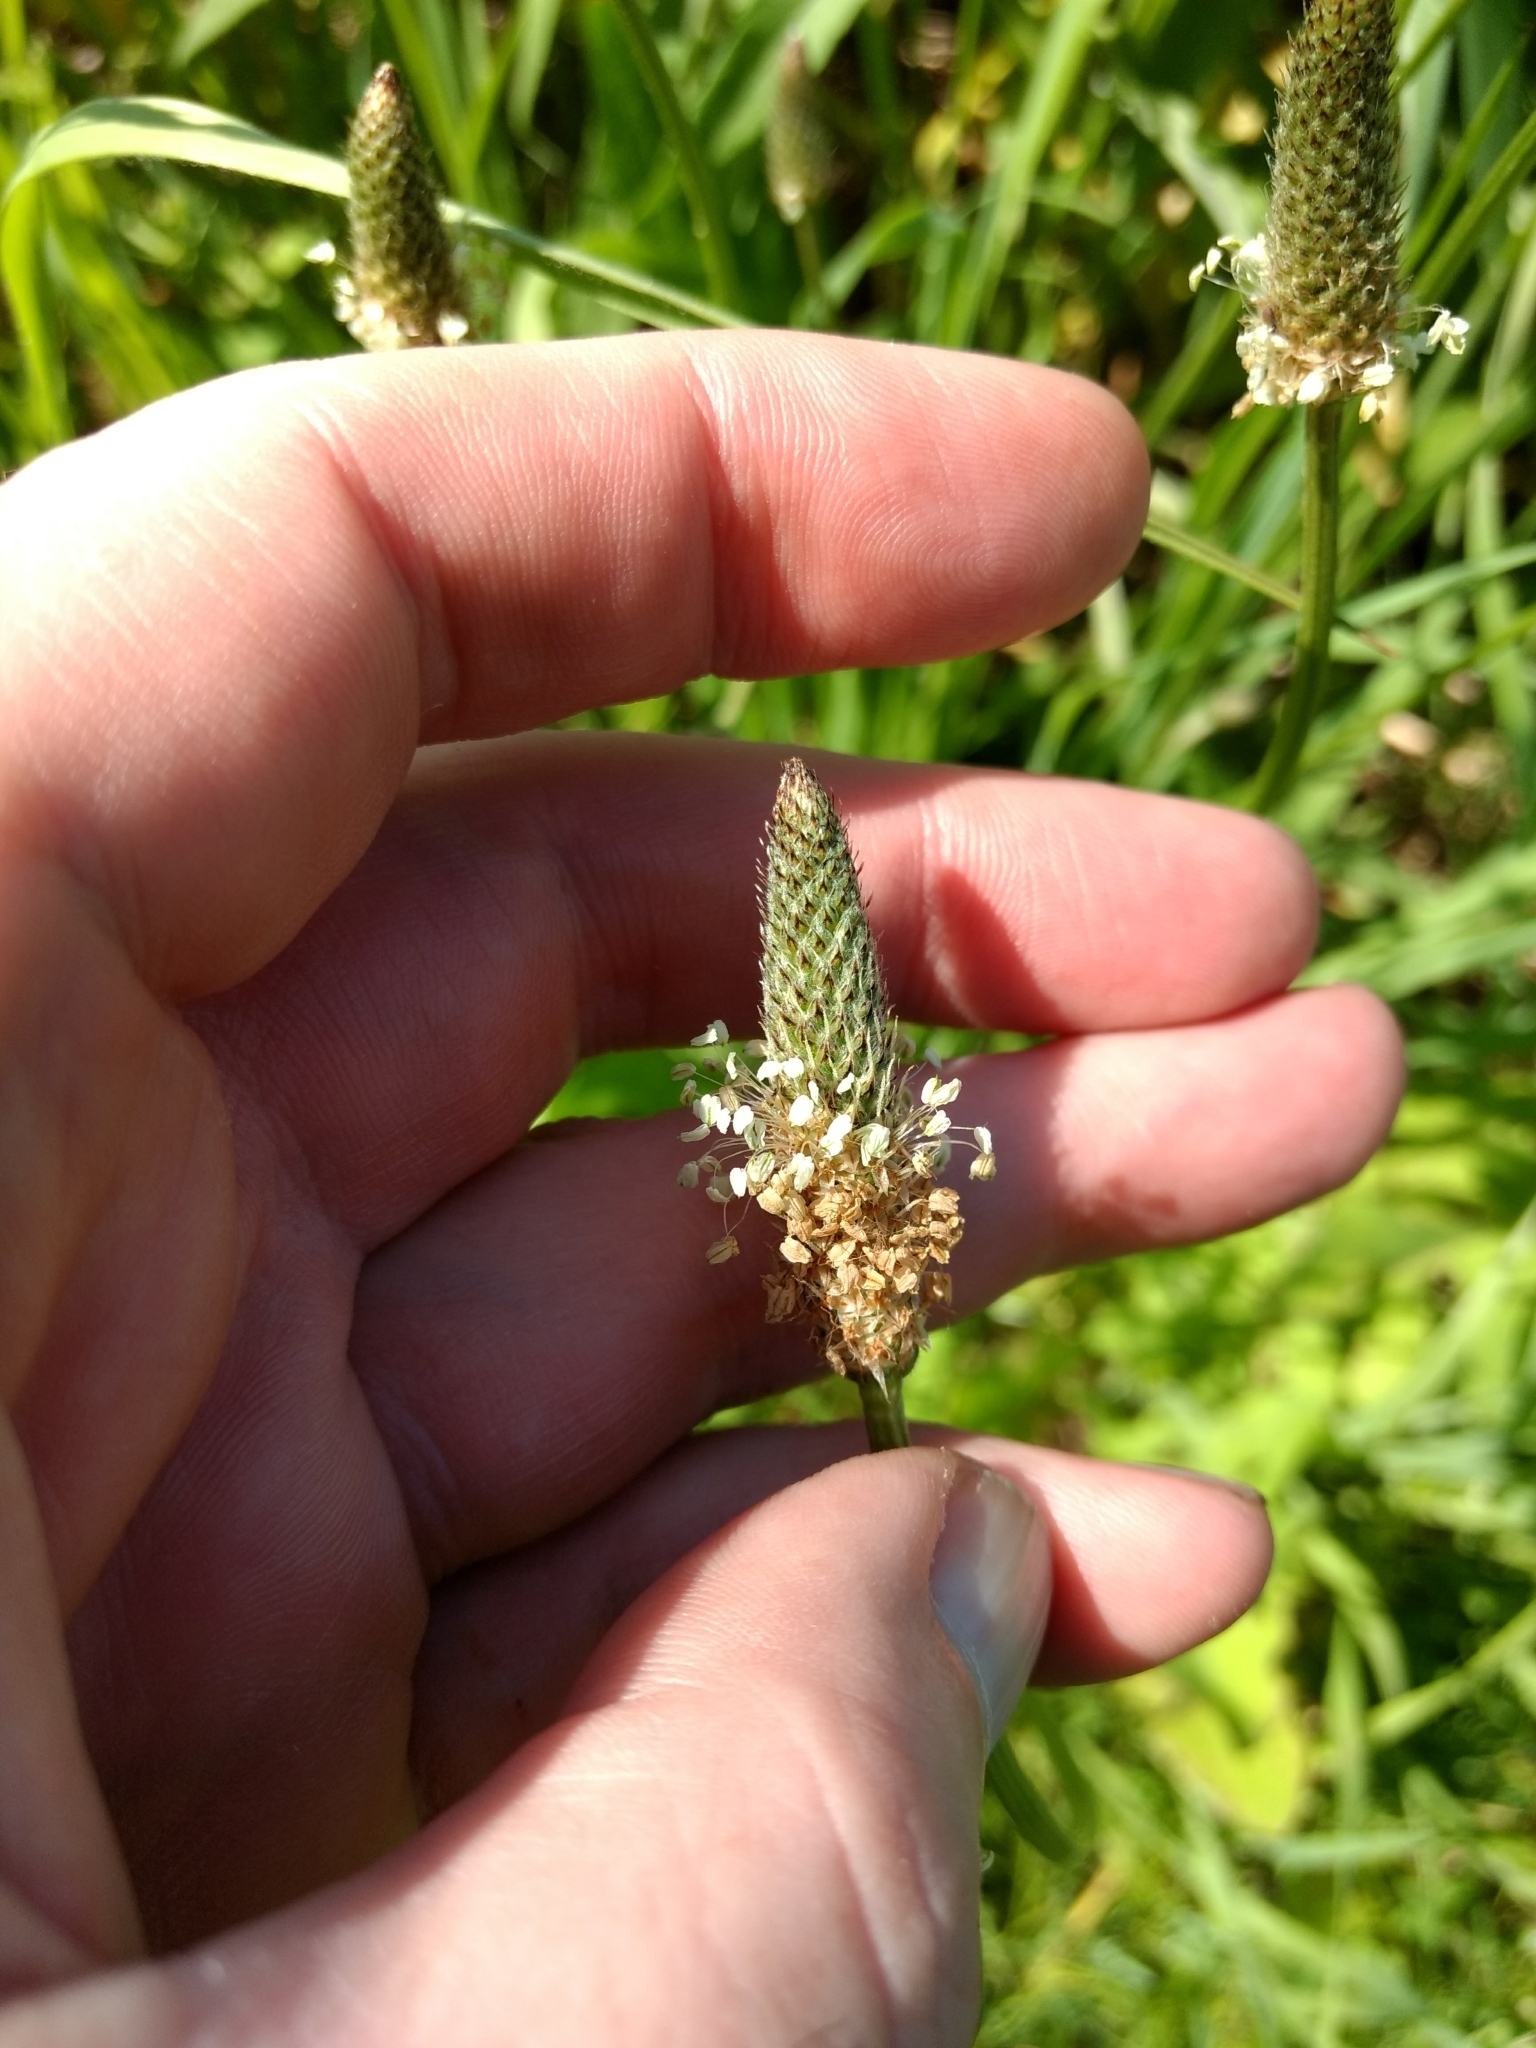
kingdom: Plantae
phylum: Tracheophyta
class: Magnoliopsida
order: Lamiales
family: Plantaginaceae
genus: Plantago
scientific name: Plantago lanceolata
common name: Ribwort plantain
